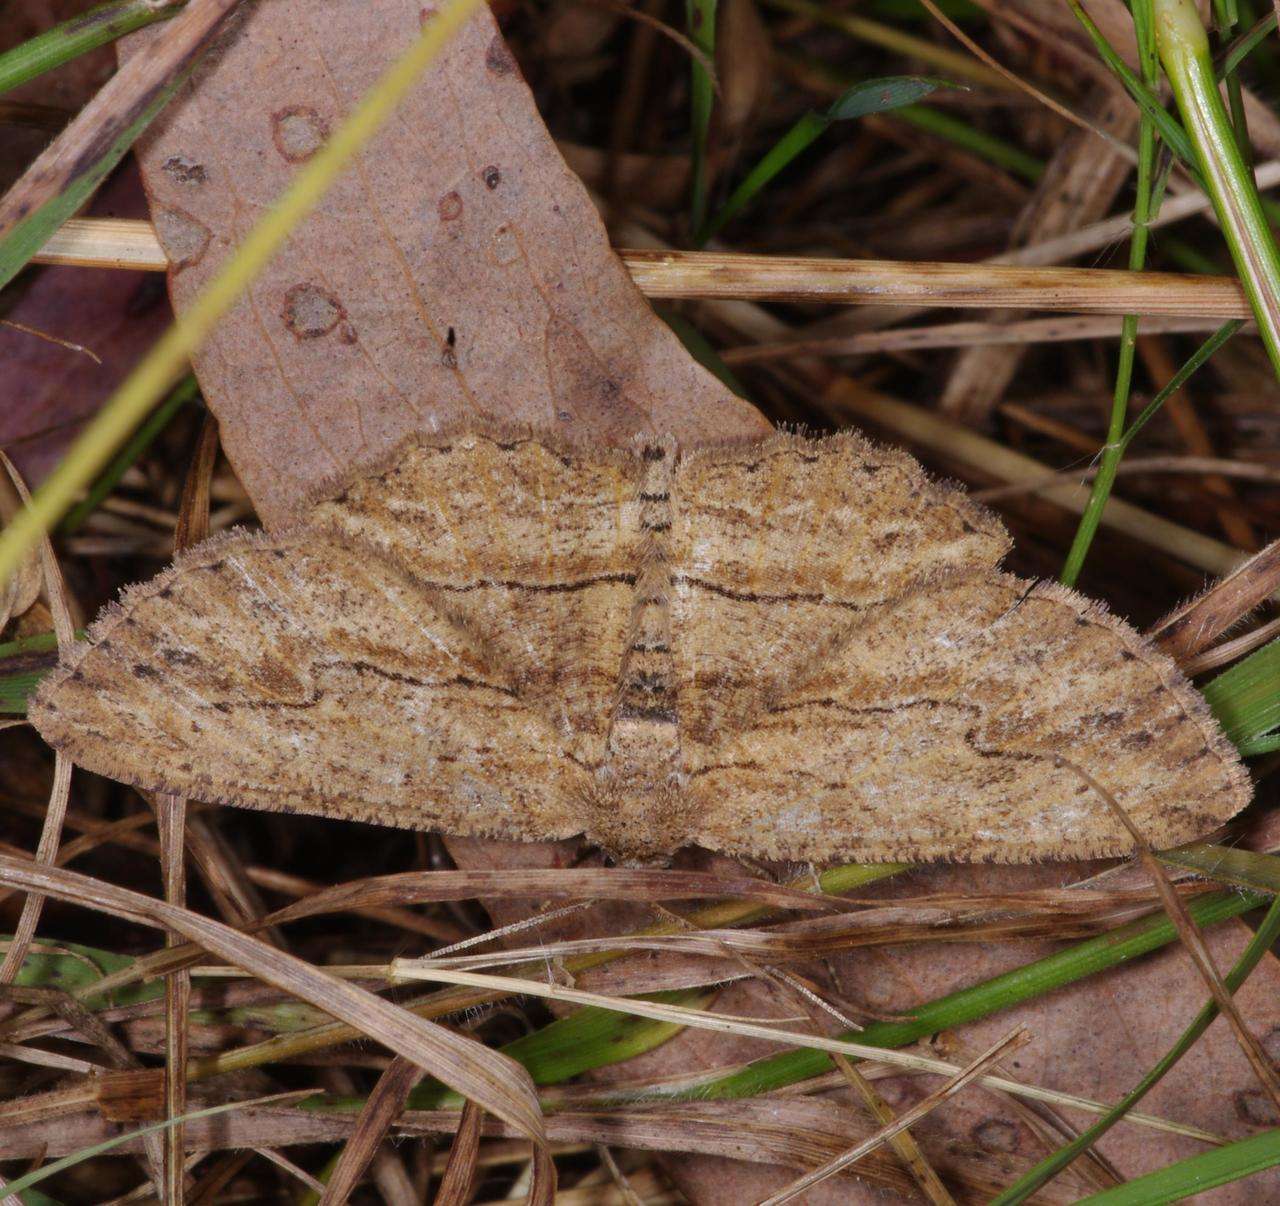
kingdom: Animalia
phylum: Arthropoda
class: Insecta
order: Lepidoptera
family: Geometridae
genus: Ectropis
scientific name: Ectropis excursaria
